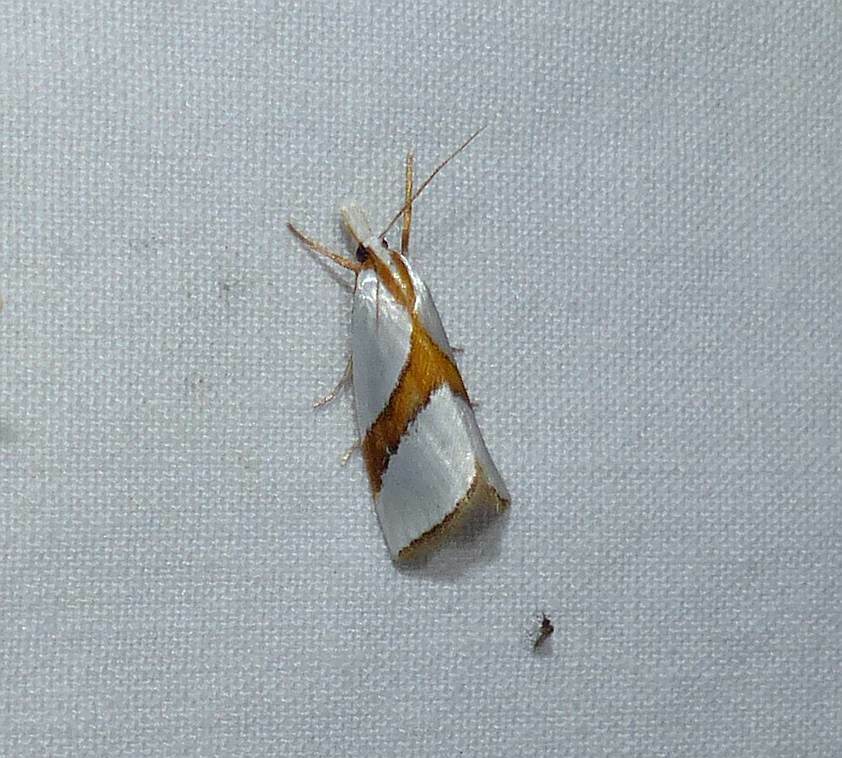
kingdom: Animalia
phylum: Arthropoda
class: Insecta
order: Lepidoptera
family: Crambidae
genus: Vaxi
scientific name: Vaxi critica
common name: Straight-lined vaxi moth
